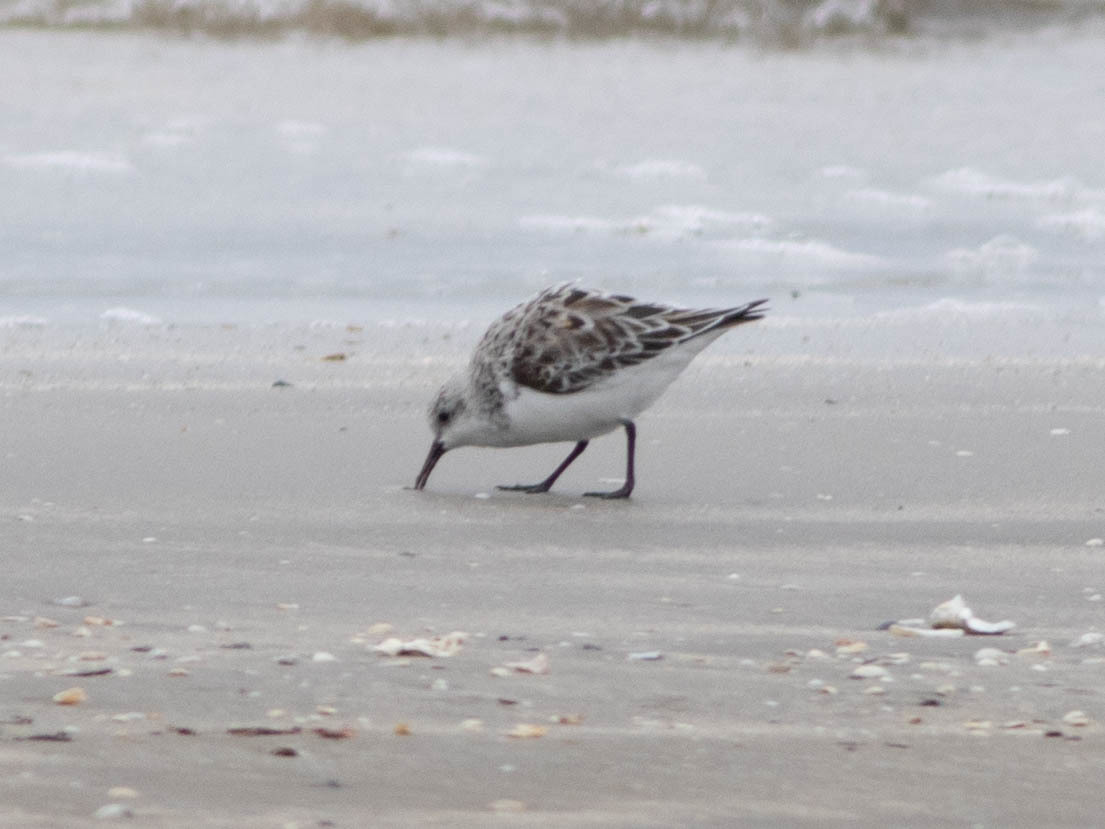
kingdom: Animalia
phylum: Chordata
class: Aves
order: Charadriiformes
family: Scolopacidae
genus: Calidris
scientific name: Calidris alba
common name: Sanderling
